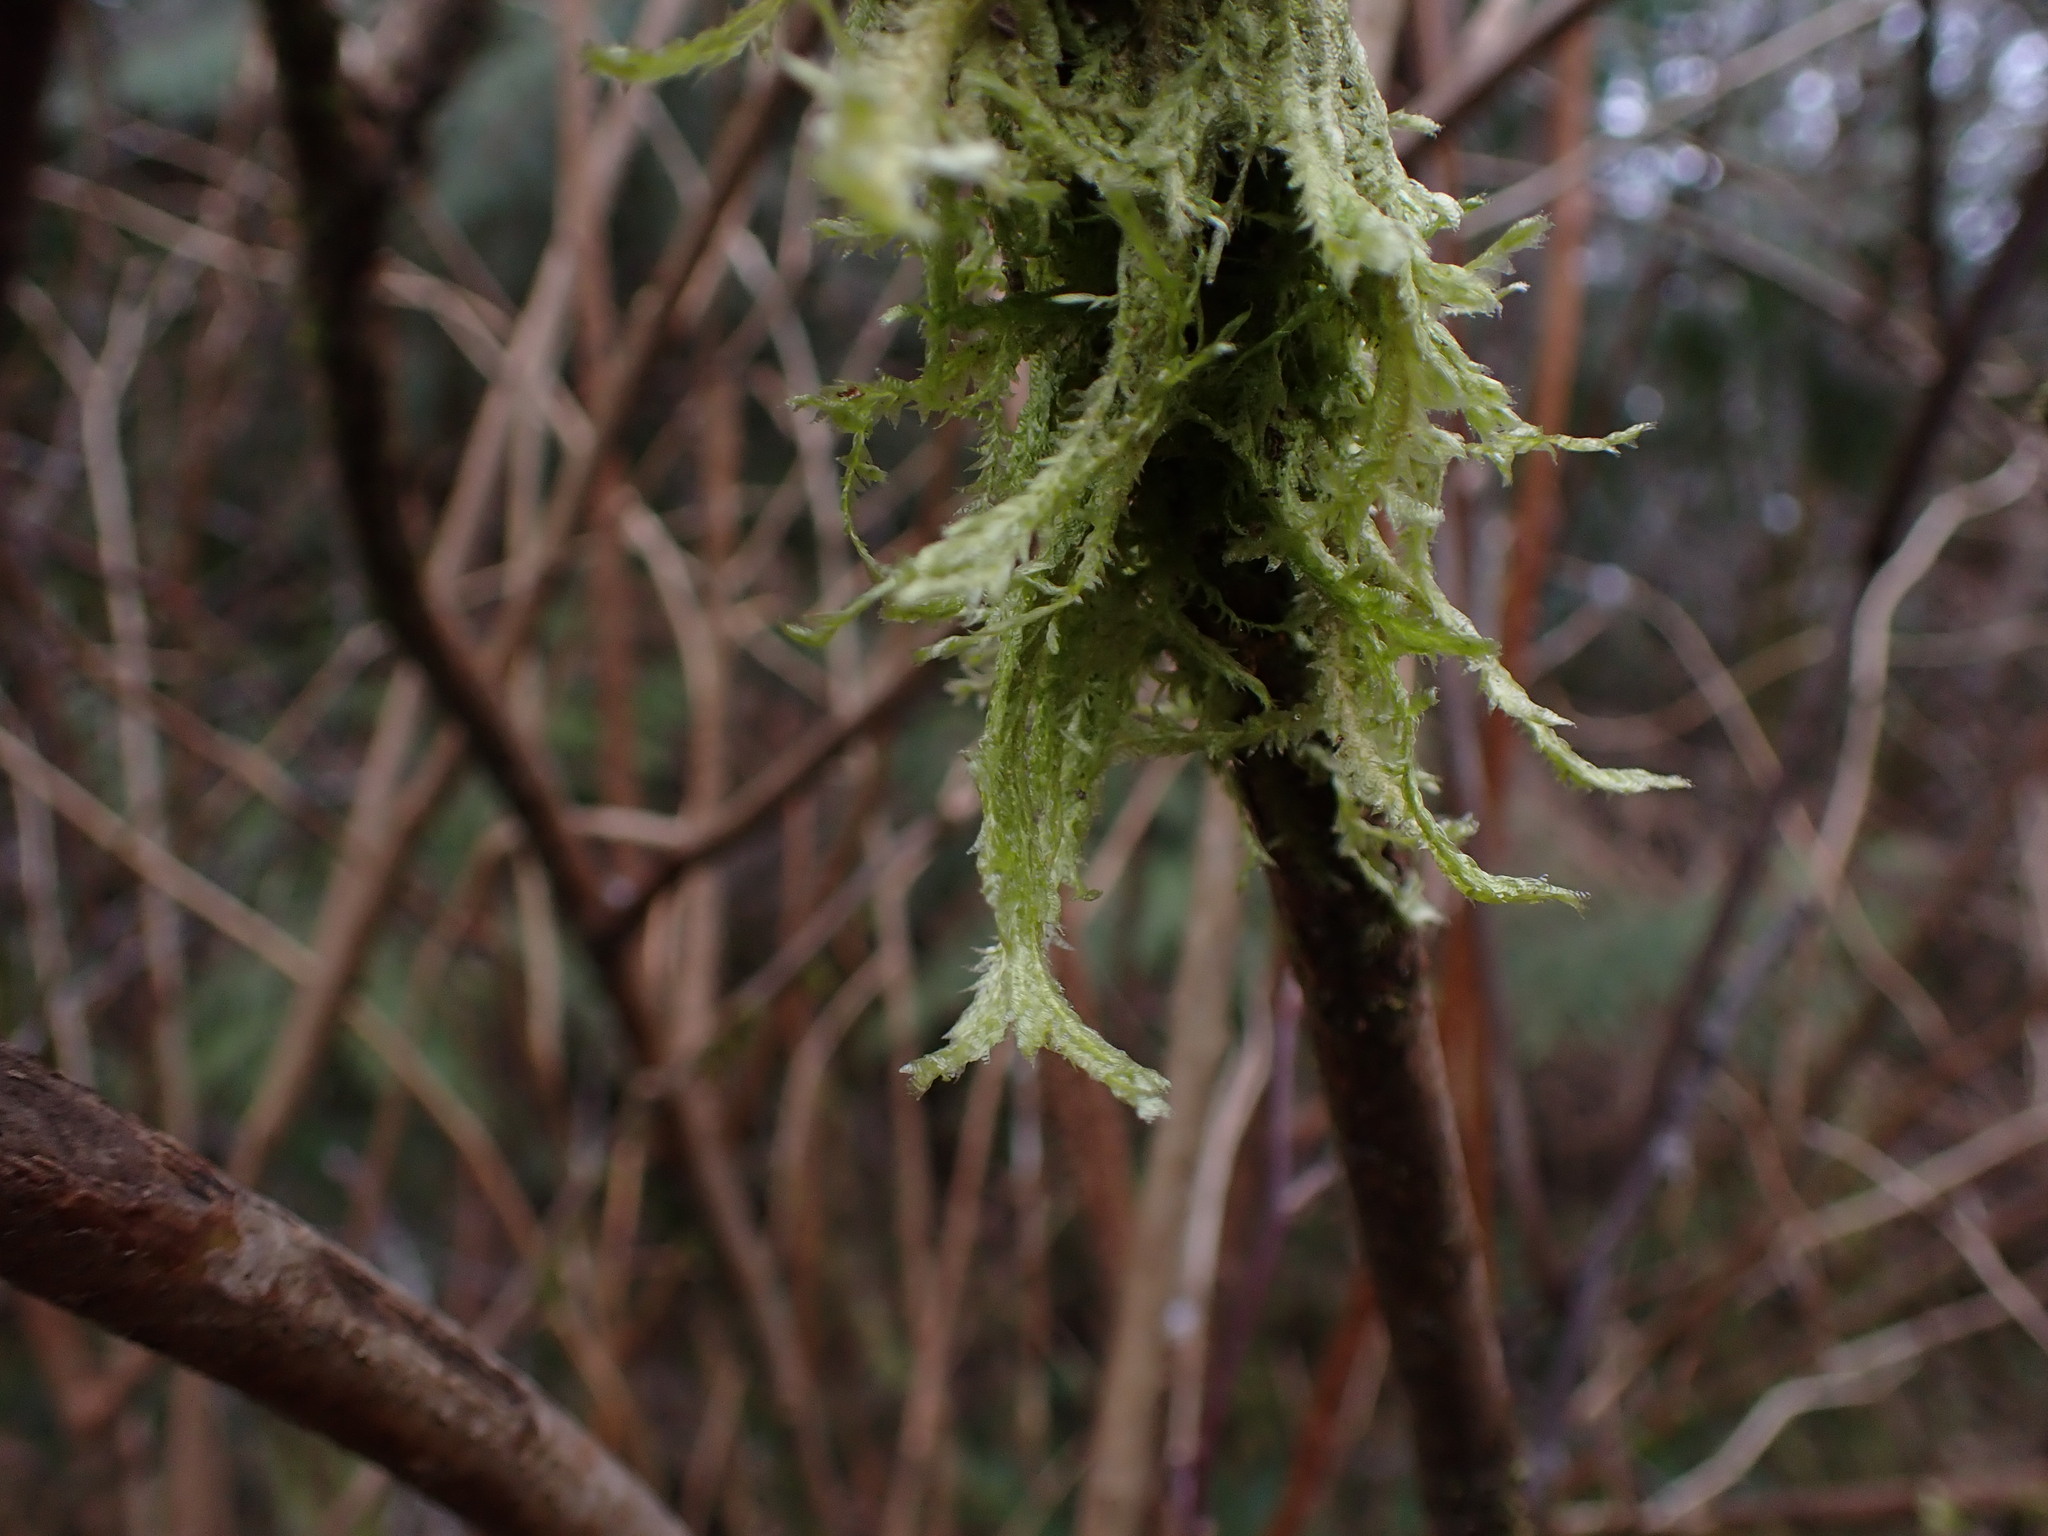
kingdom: Plantae
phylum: Bryophyta
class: Bryopsida
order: Hypnales
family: Neckeraceae
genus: Neckera
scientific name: Neckera douglasii
